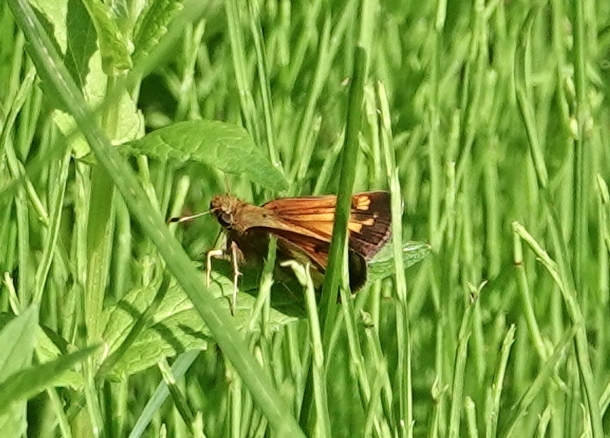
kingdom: Animalia
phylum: Arthropoda
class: Insecta
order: Lepidoptera
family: Hesperiidae
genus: Lon
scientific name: Lon hobomok
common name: Hobomok skipper
